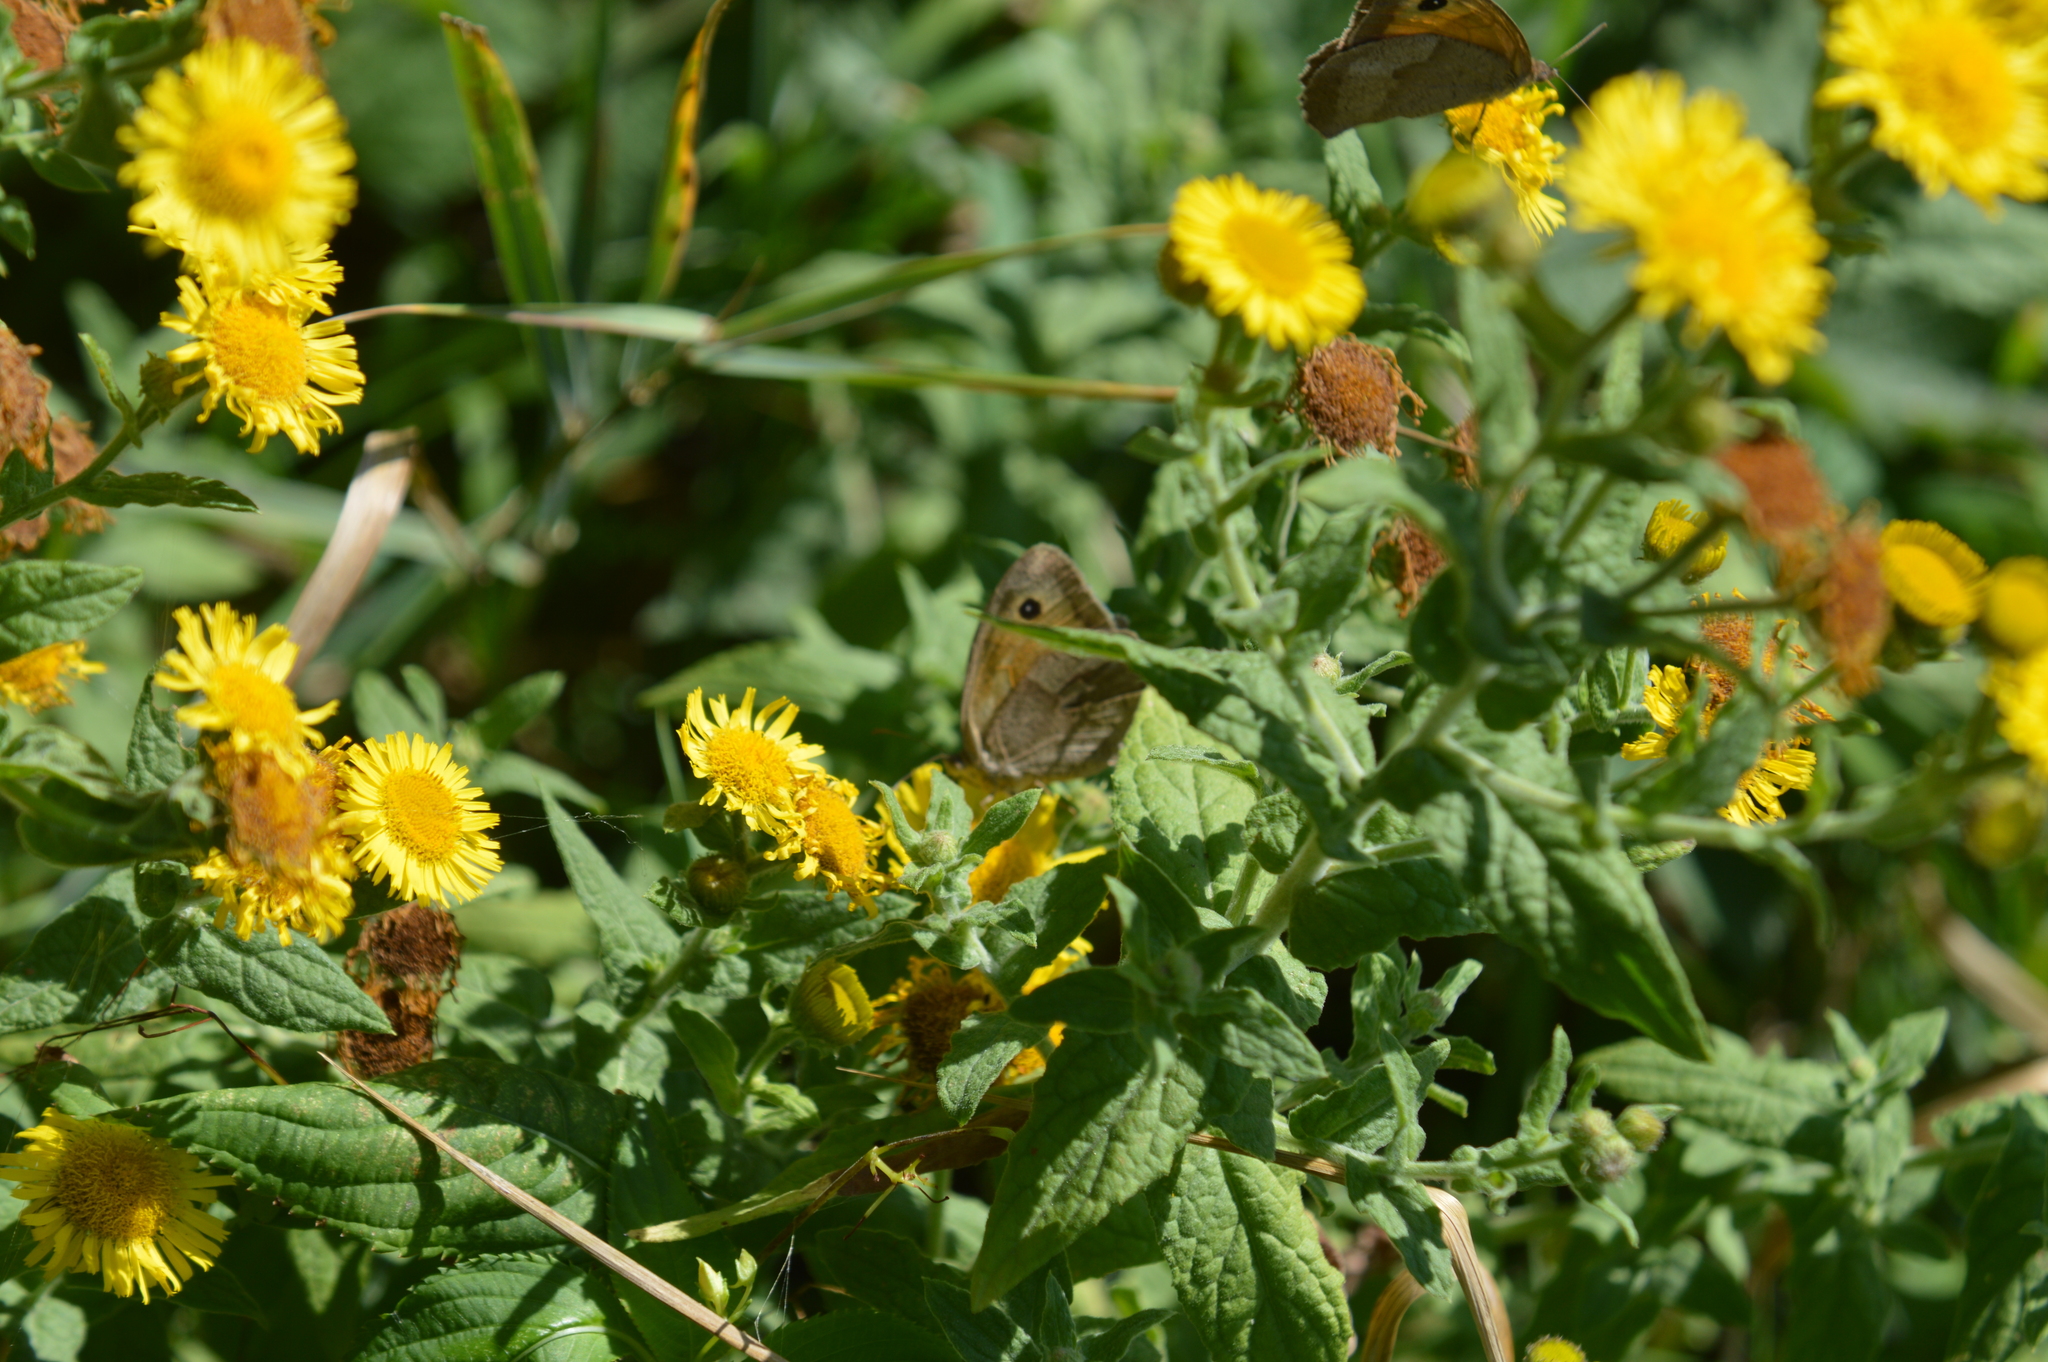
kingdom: Animalia
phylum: Arthropoda
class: Insecta
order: Lepidoptera
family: Nymphalidae
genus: Maniola
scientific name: Maniola jurtina
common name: Meadow brown
